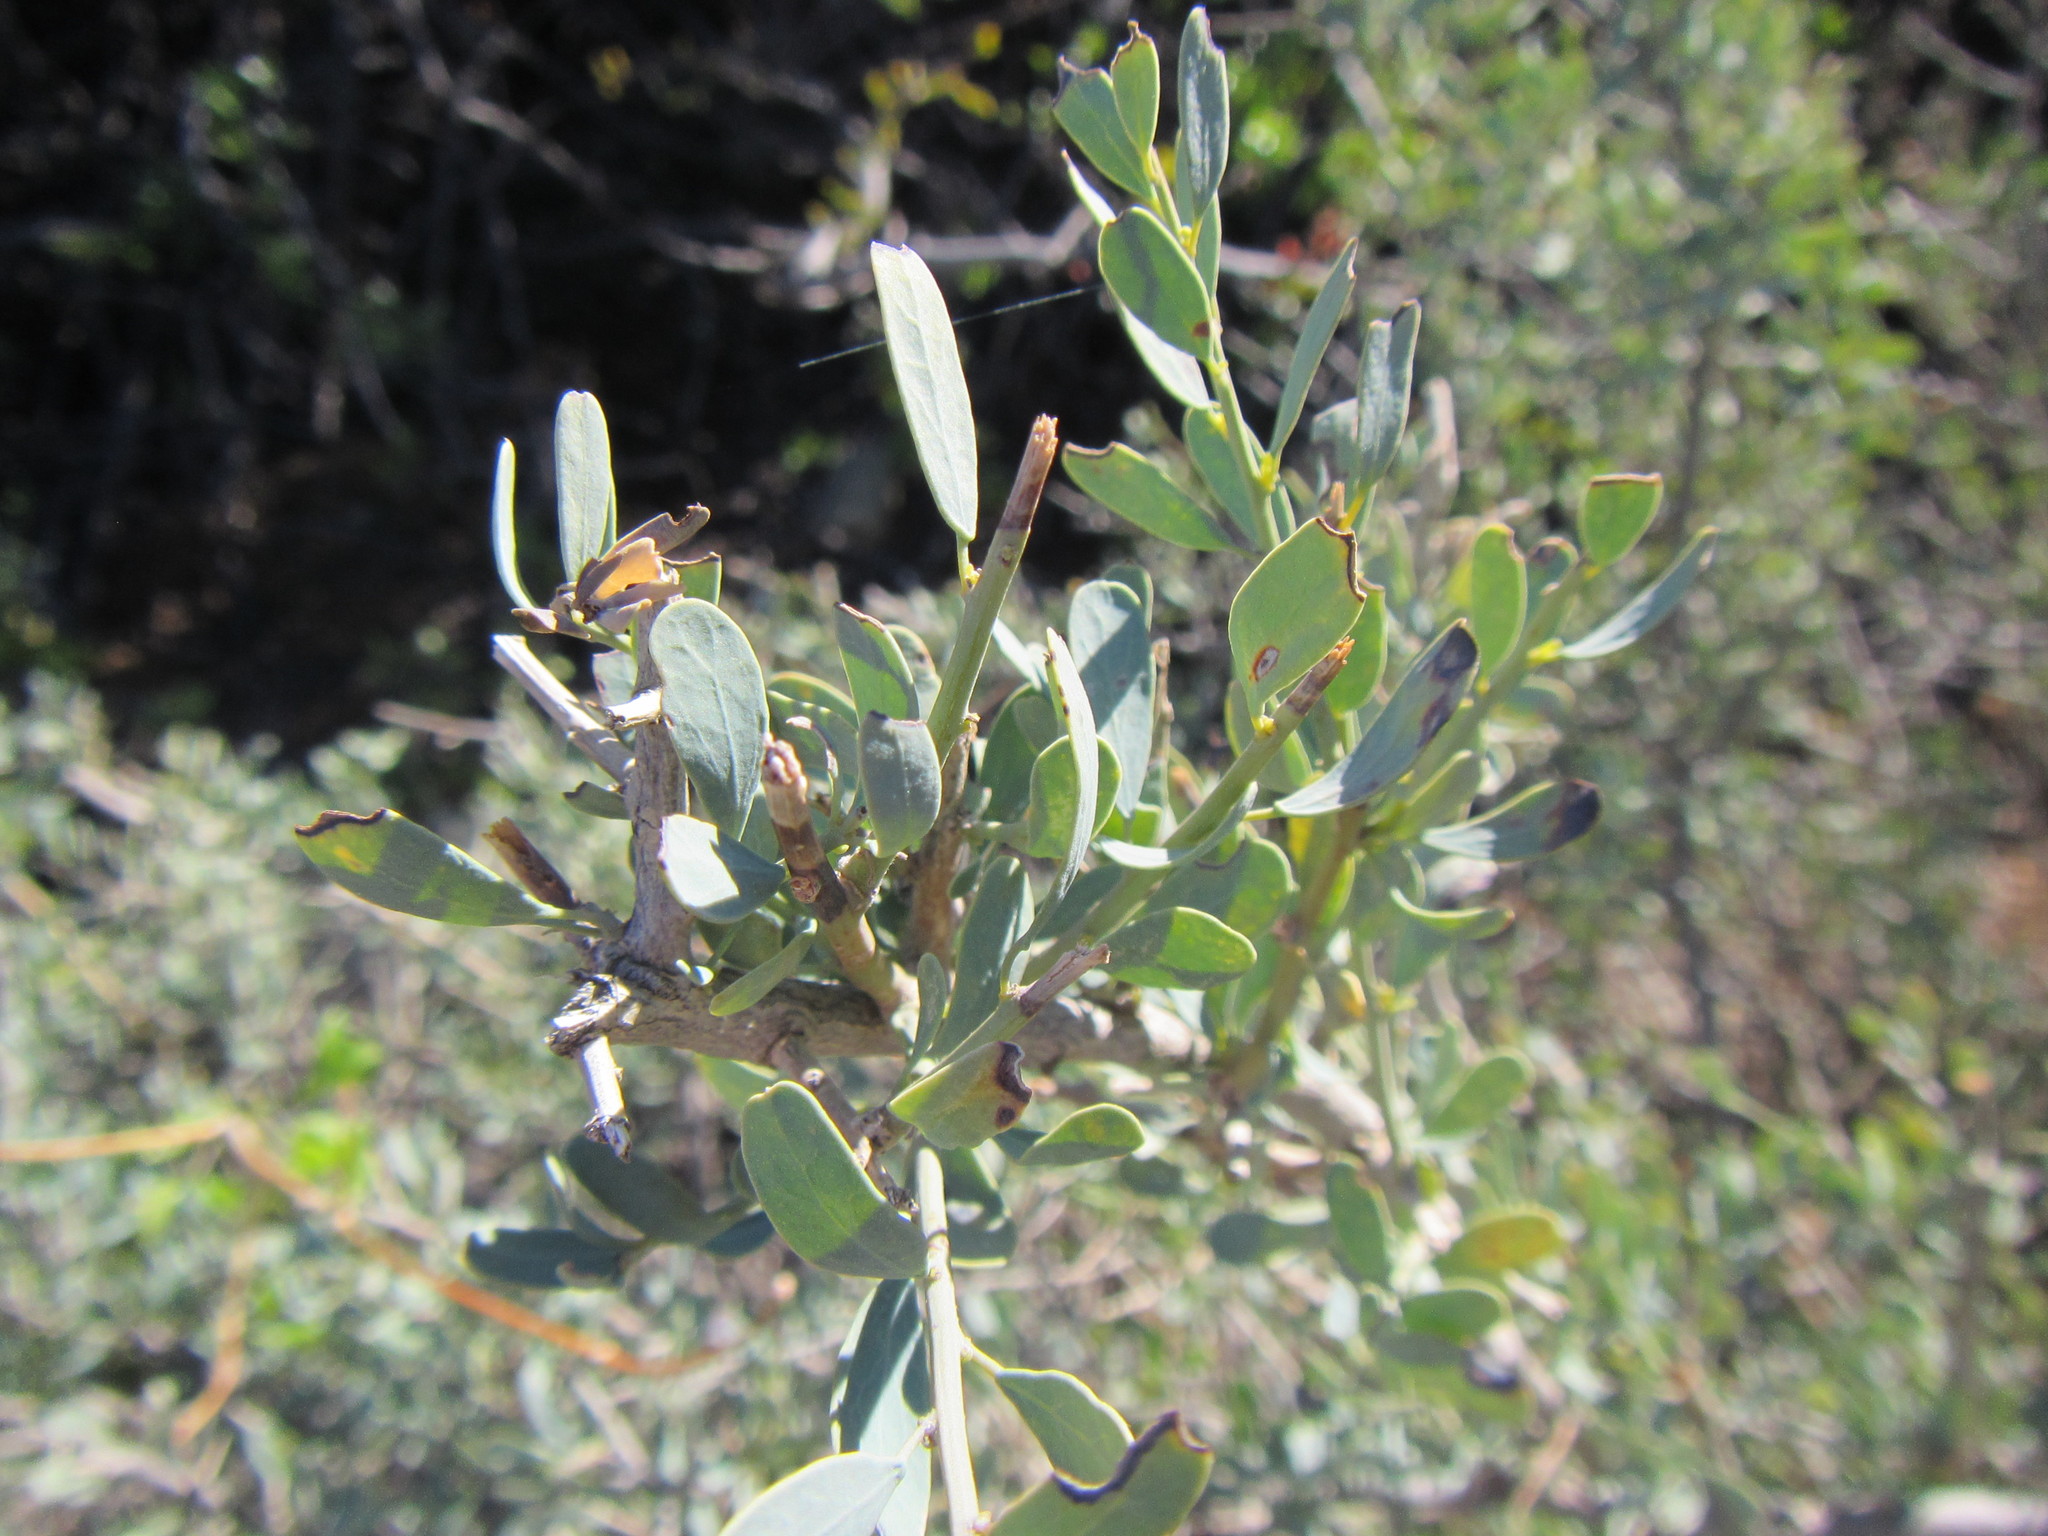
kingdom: Plantae
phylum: Tracheophyta
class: Magnoliopsida
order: Ranunculales
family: Menispermaceae
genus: Antizoma
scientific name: Antizoma miersiana
